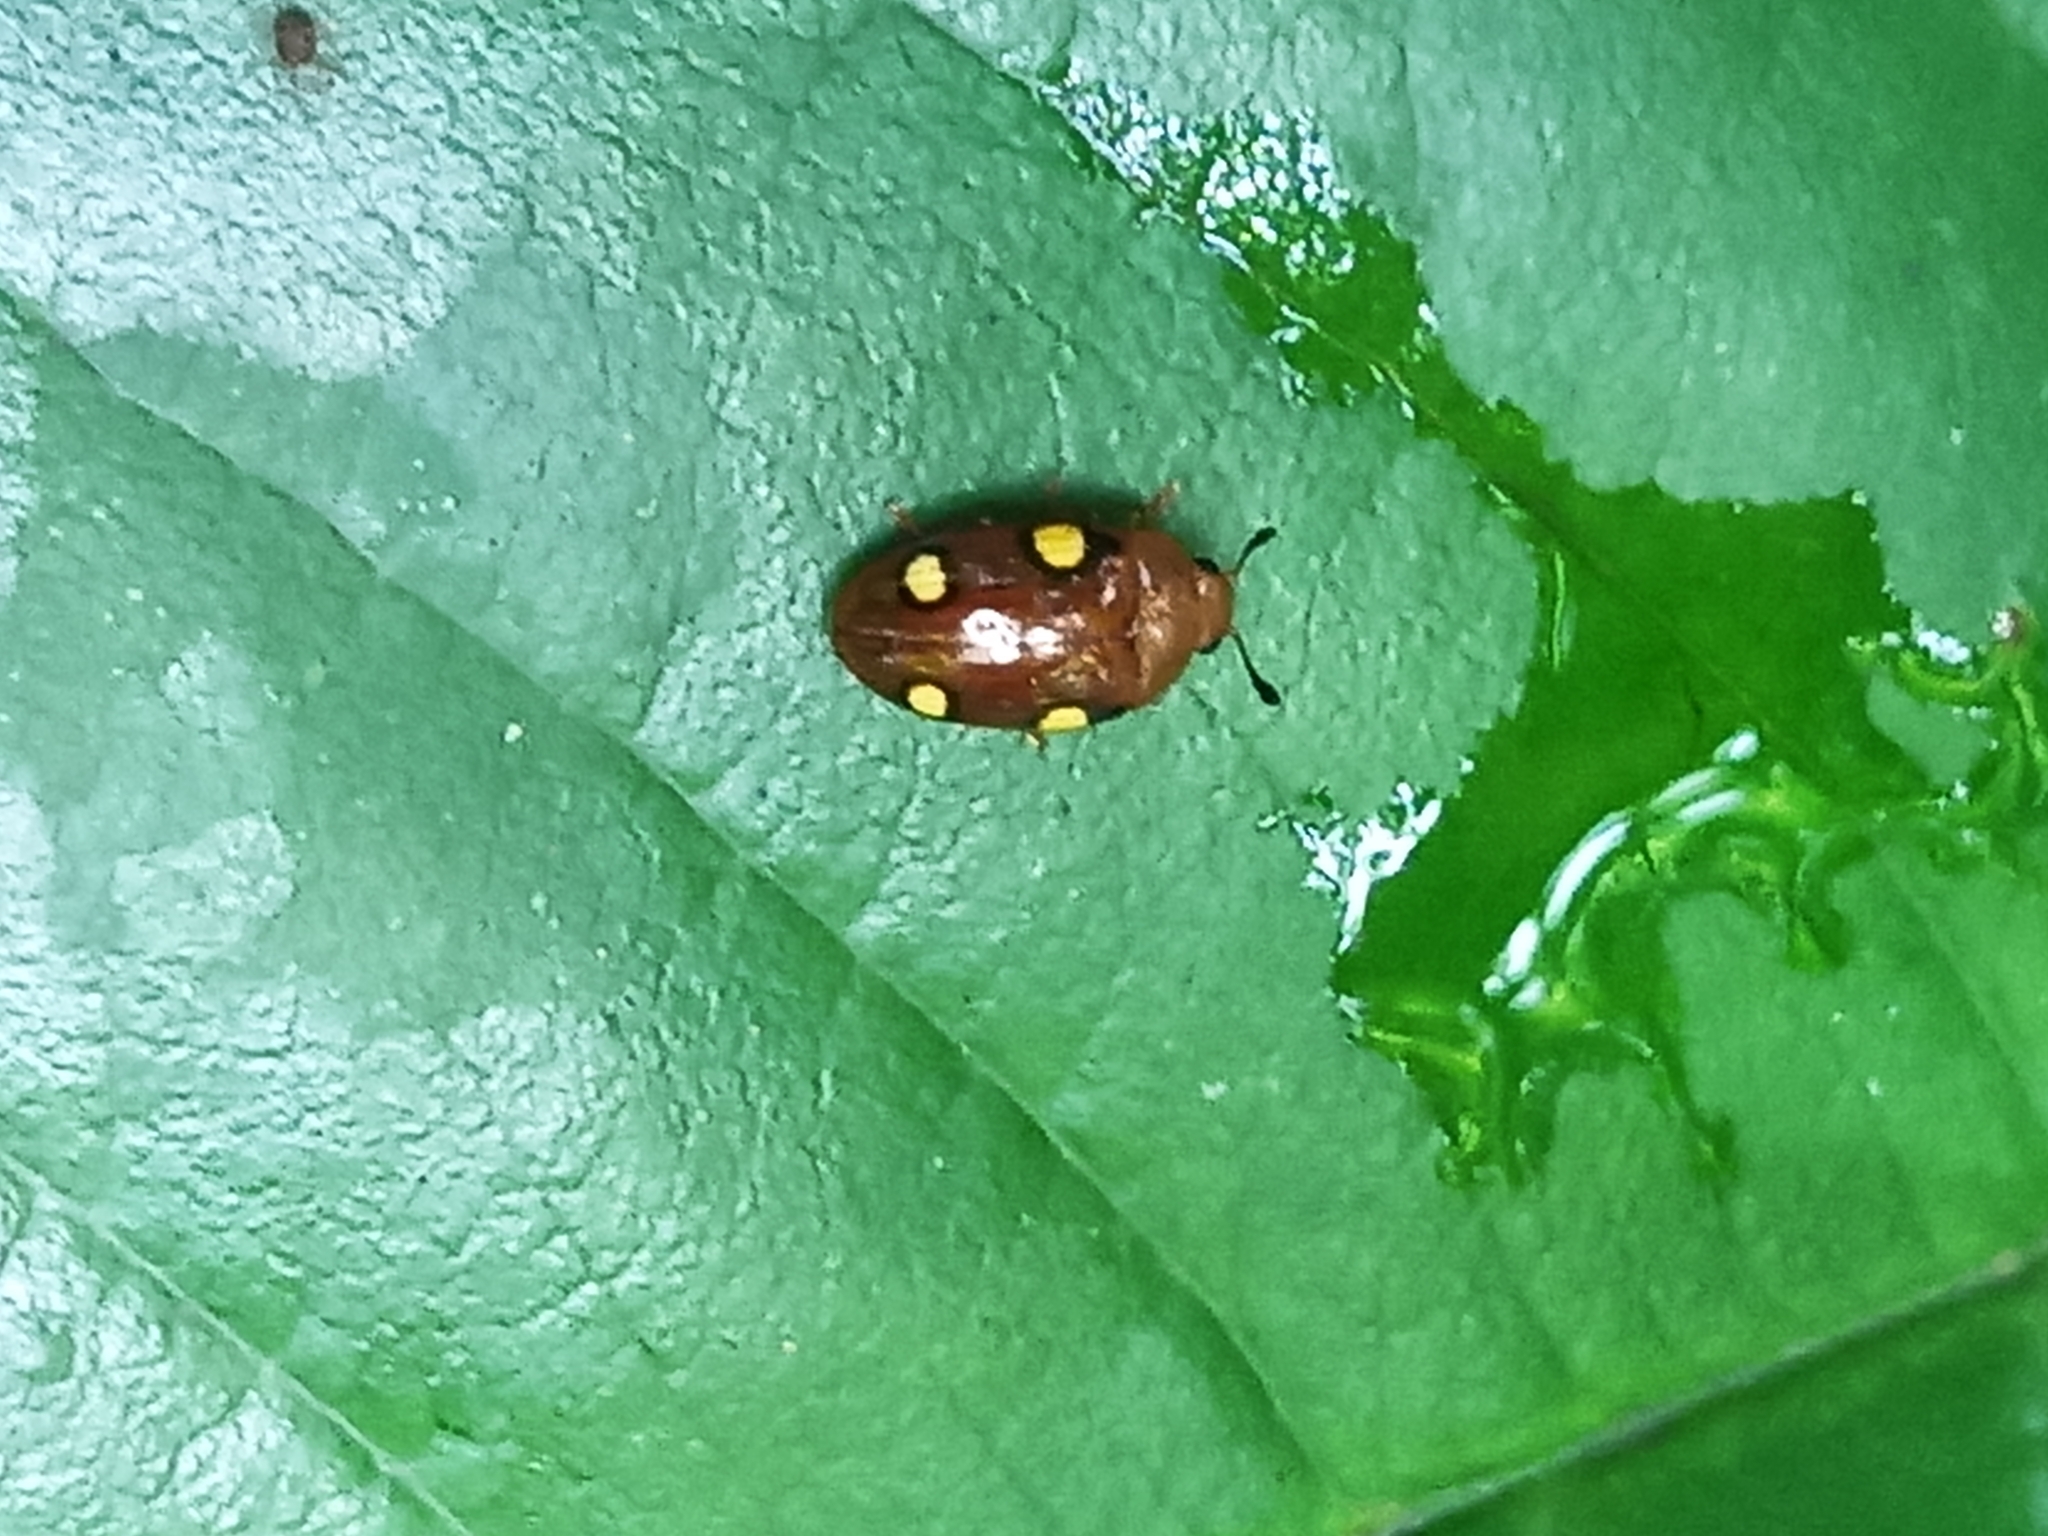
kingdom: Animalia
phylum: Arthropoda
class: Insecta
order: Coleoptera
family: Erotylidae
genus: Mycotretus
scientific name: Mycotretus argus
